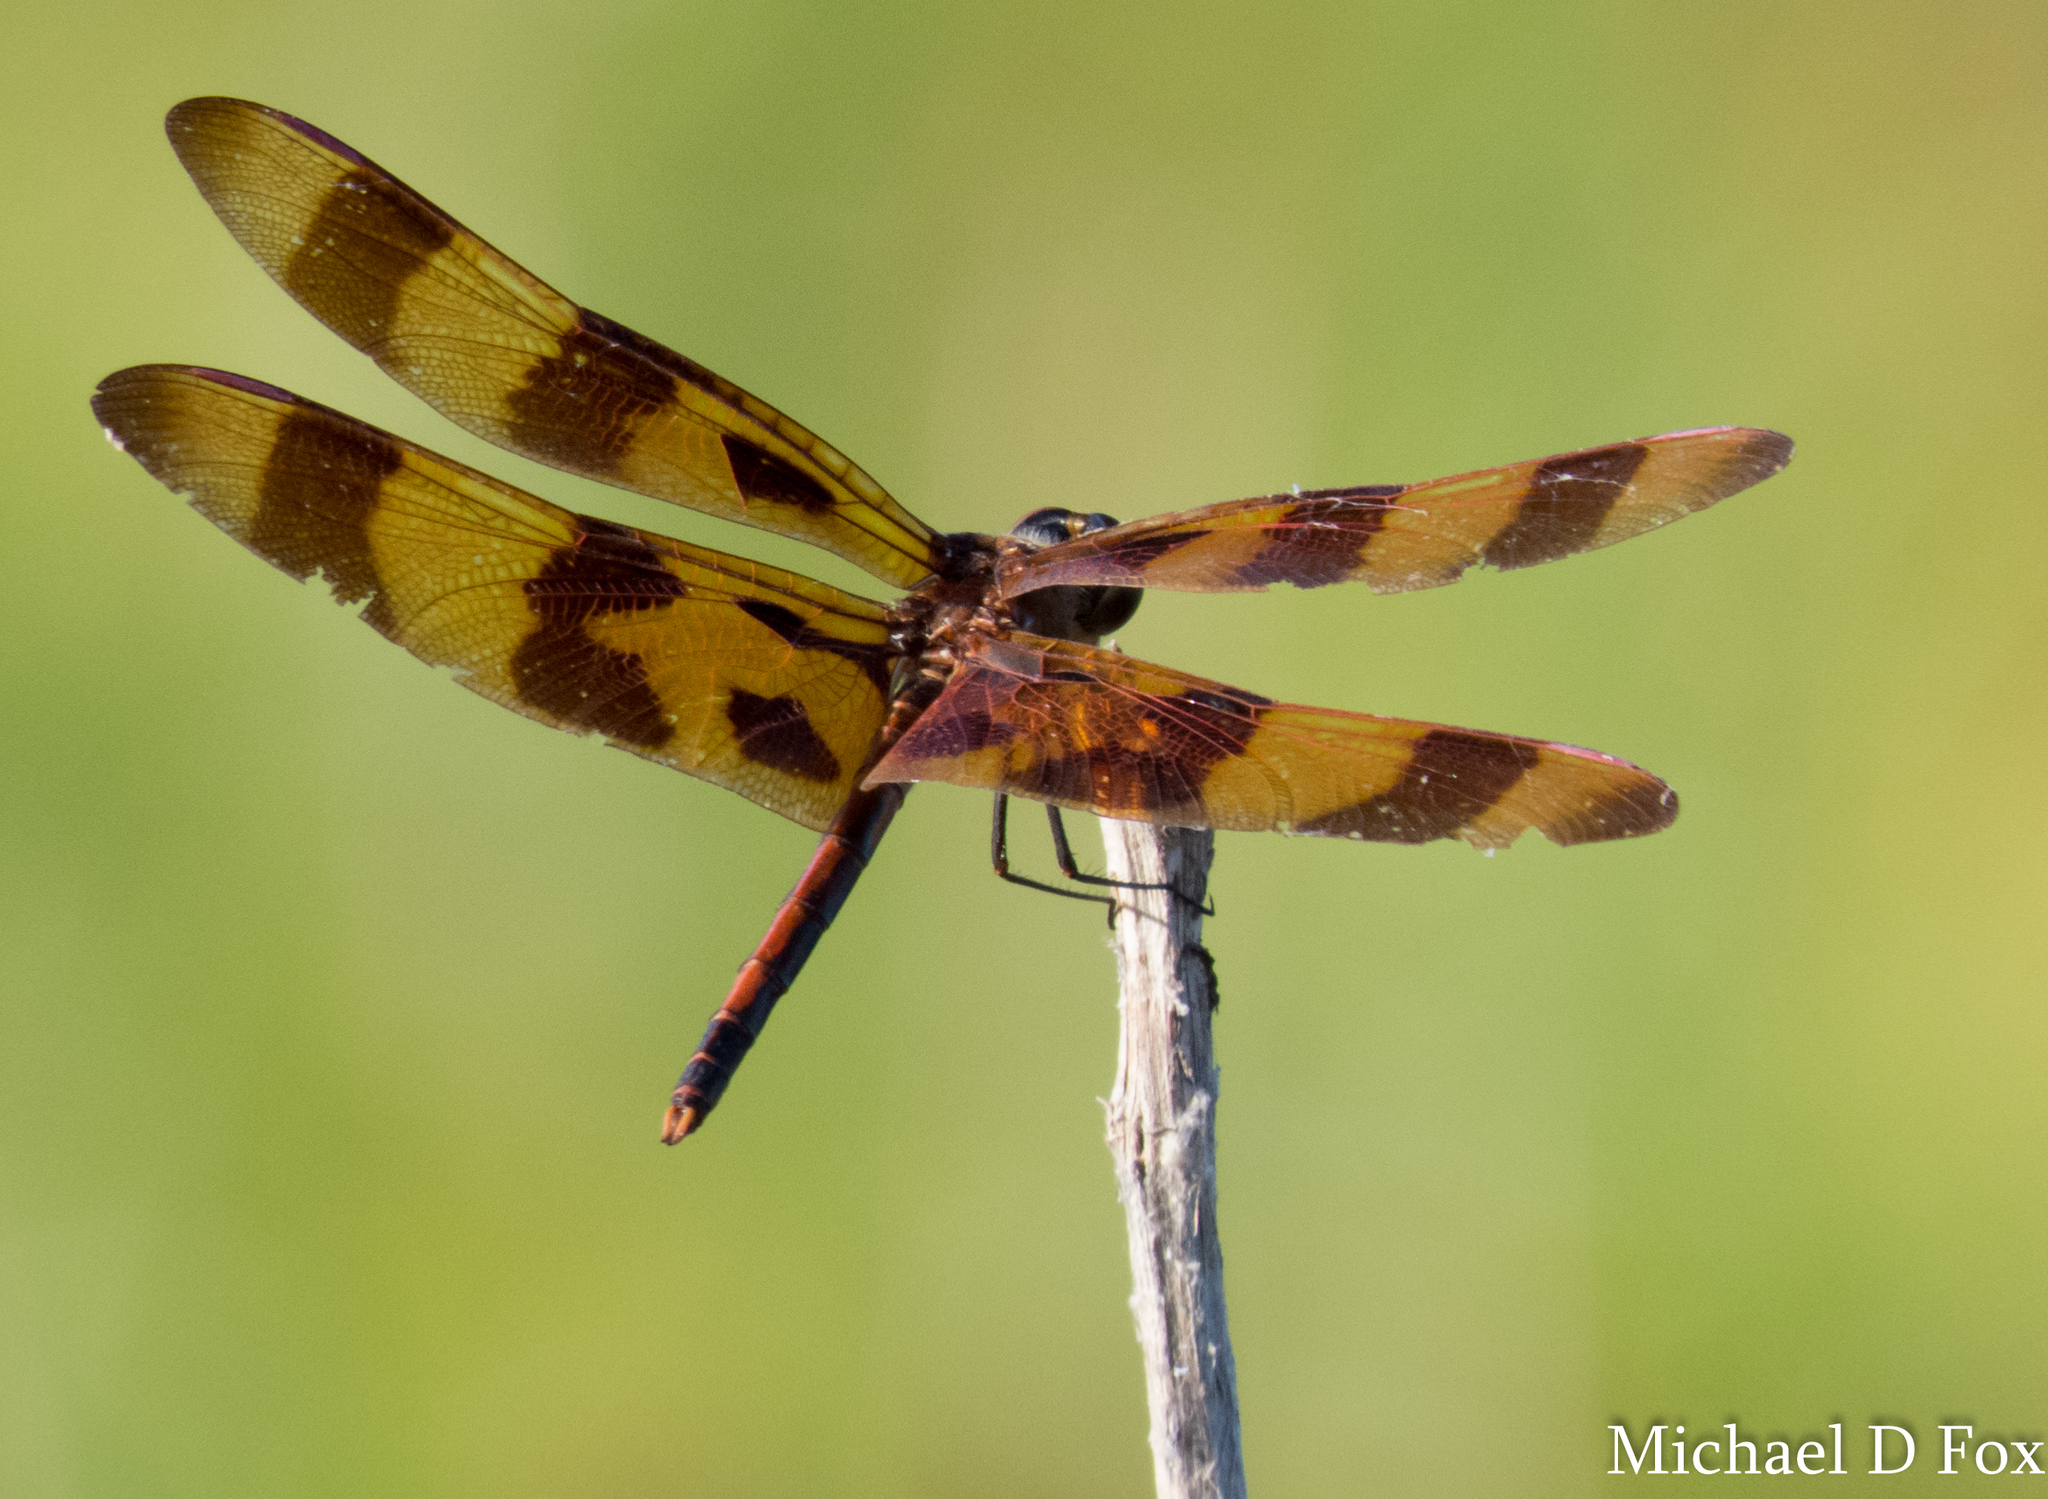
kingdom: Animalia
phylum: Arthropoda
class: Insecta
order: Odonata
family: Libellulidae
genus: Celithemis
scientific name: Celithemis eponina
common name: Halloween pennant
